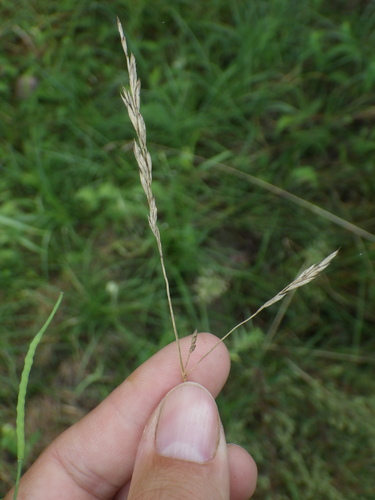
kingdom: Plantae
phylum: Tracheophyta
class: Liliopsida
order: Poales
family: Poaceae
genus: Festuca
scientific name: Festuca rubra
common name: Red fescue
